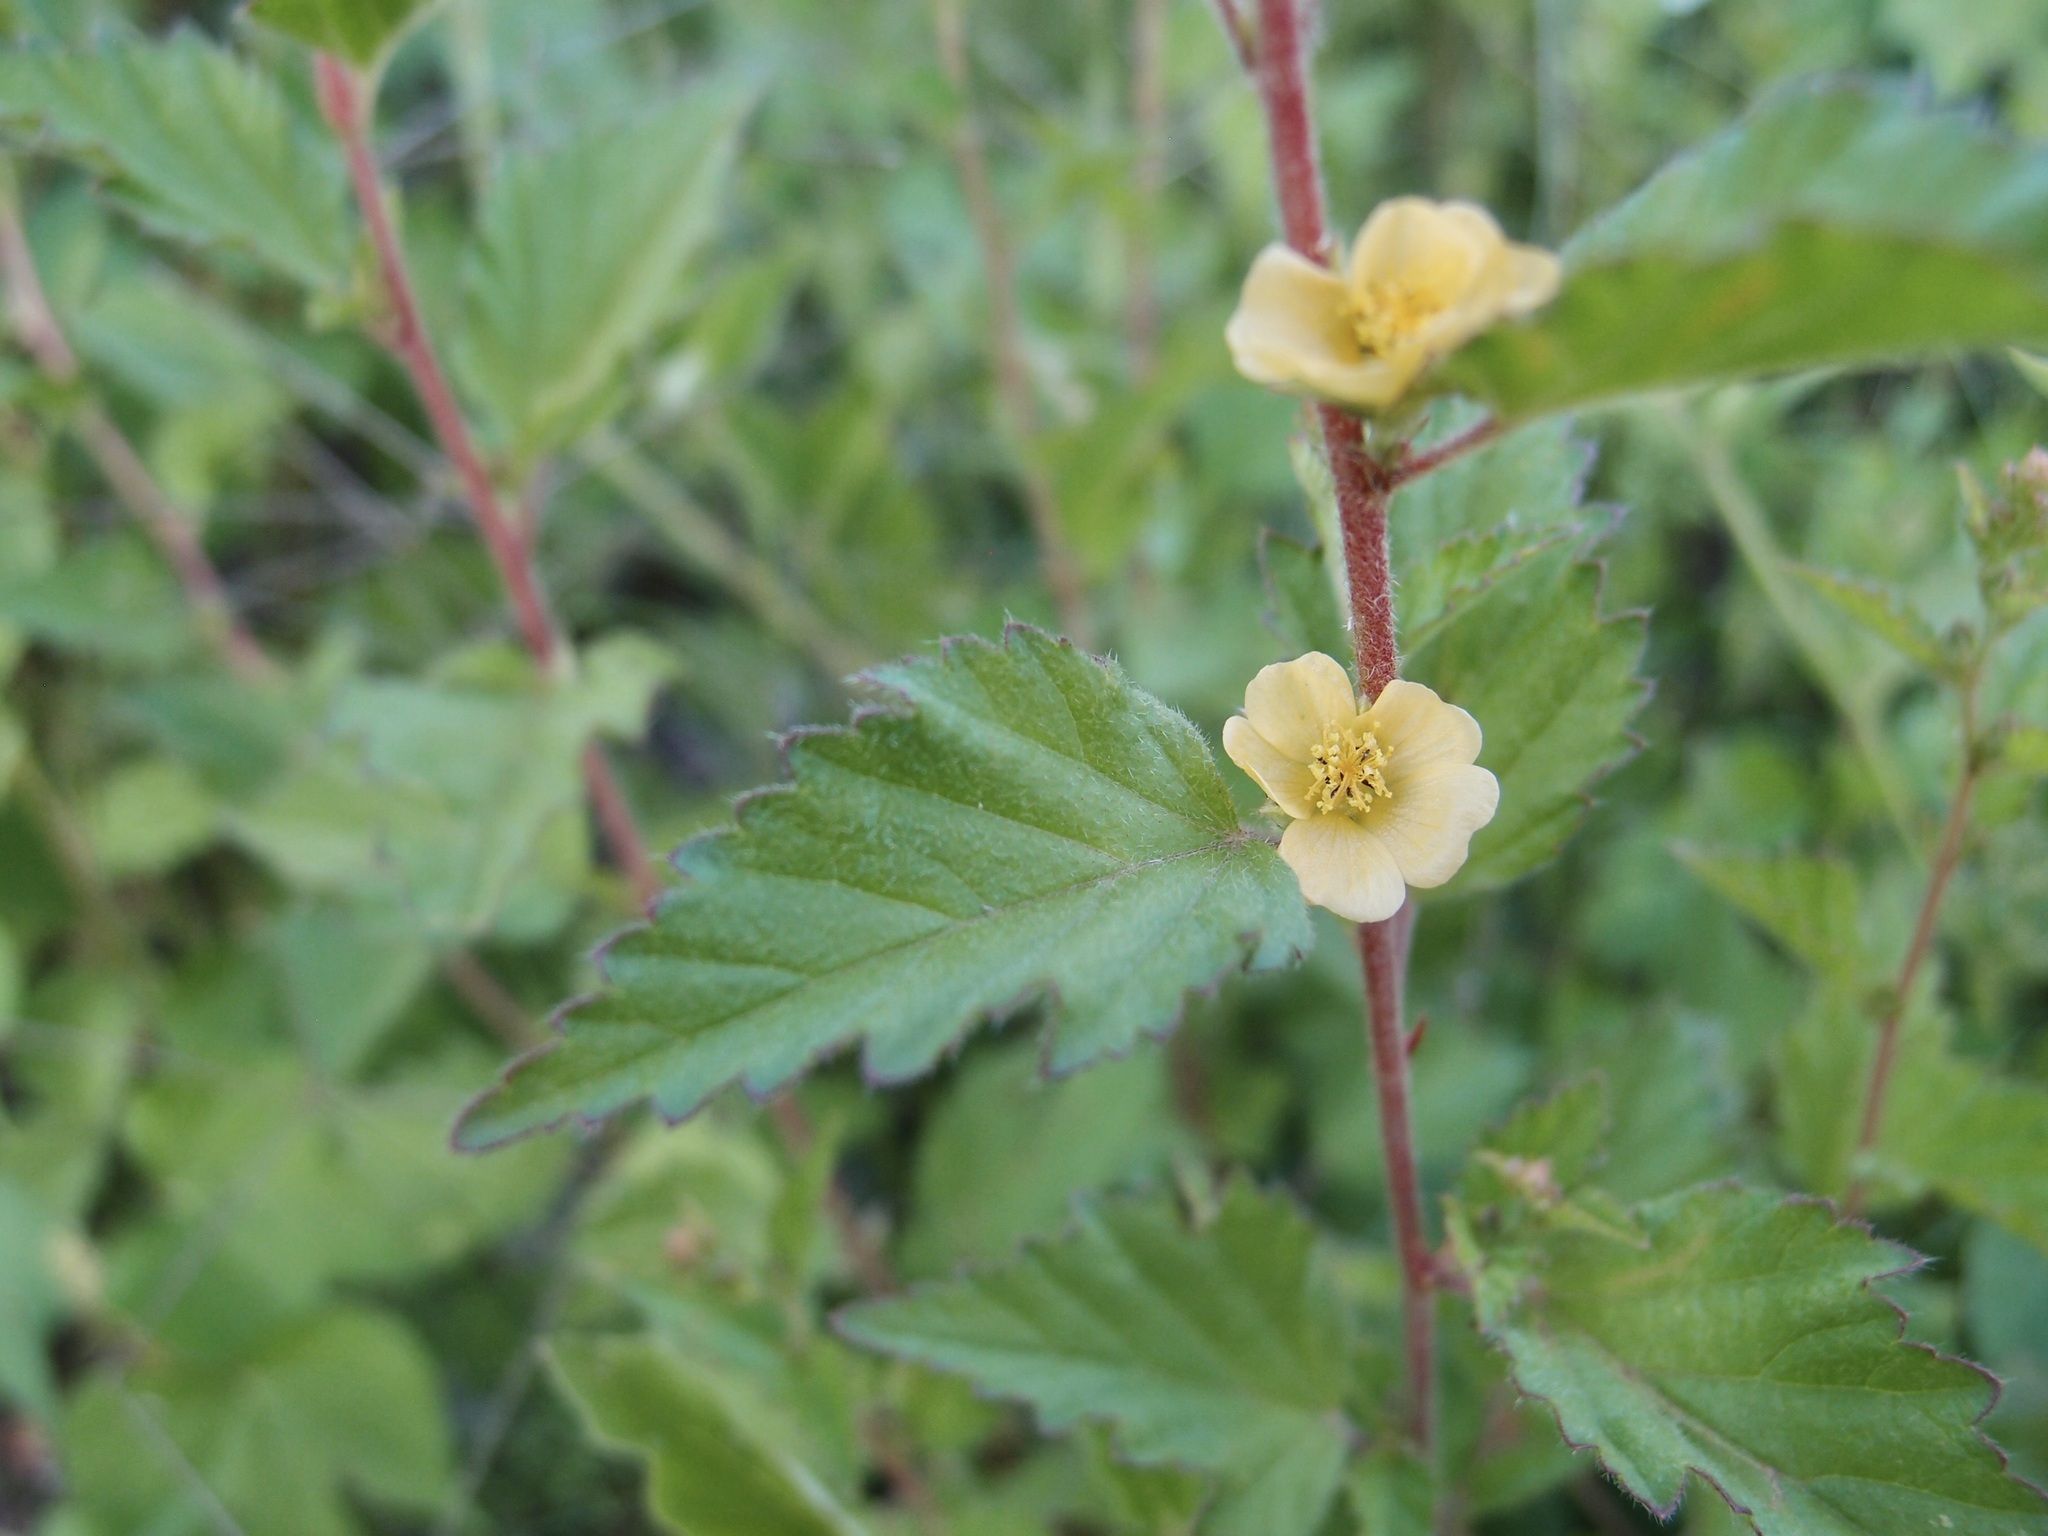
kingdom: Plantae
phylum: Tracheophyta
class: Magnoliopsida
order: Malvales
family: Malvaceae
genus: Malvastrum
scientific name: Malvastrum bicuspidatum
